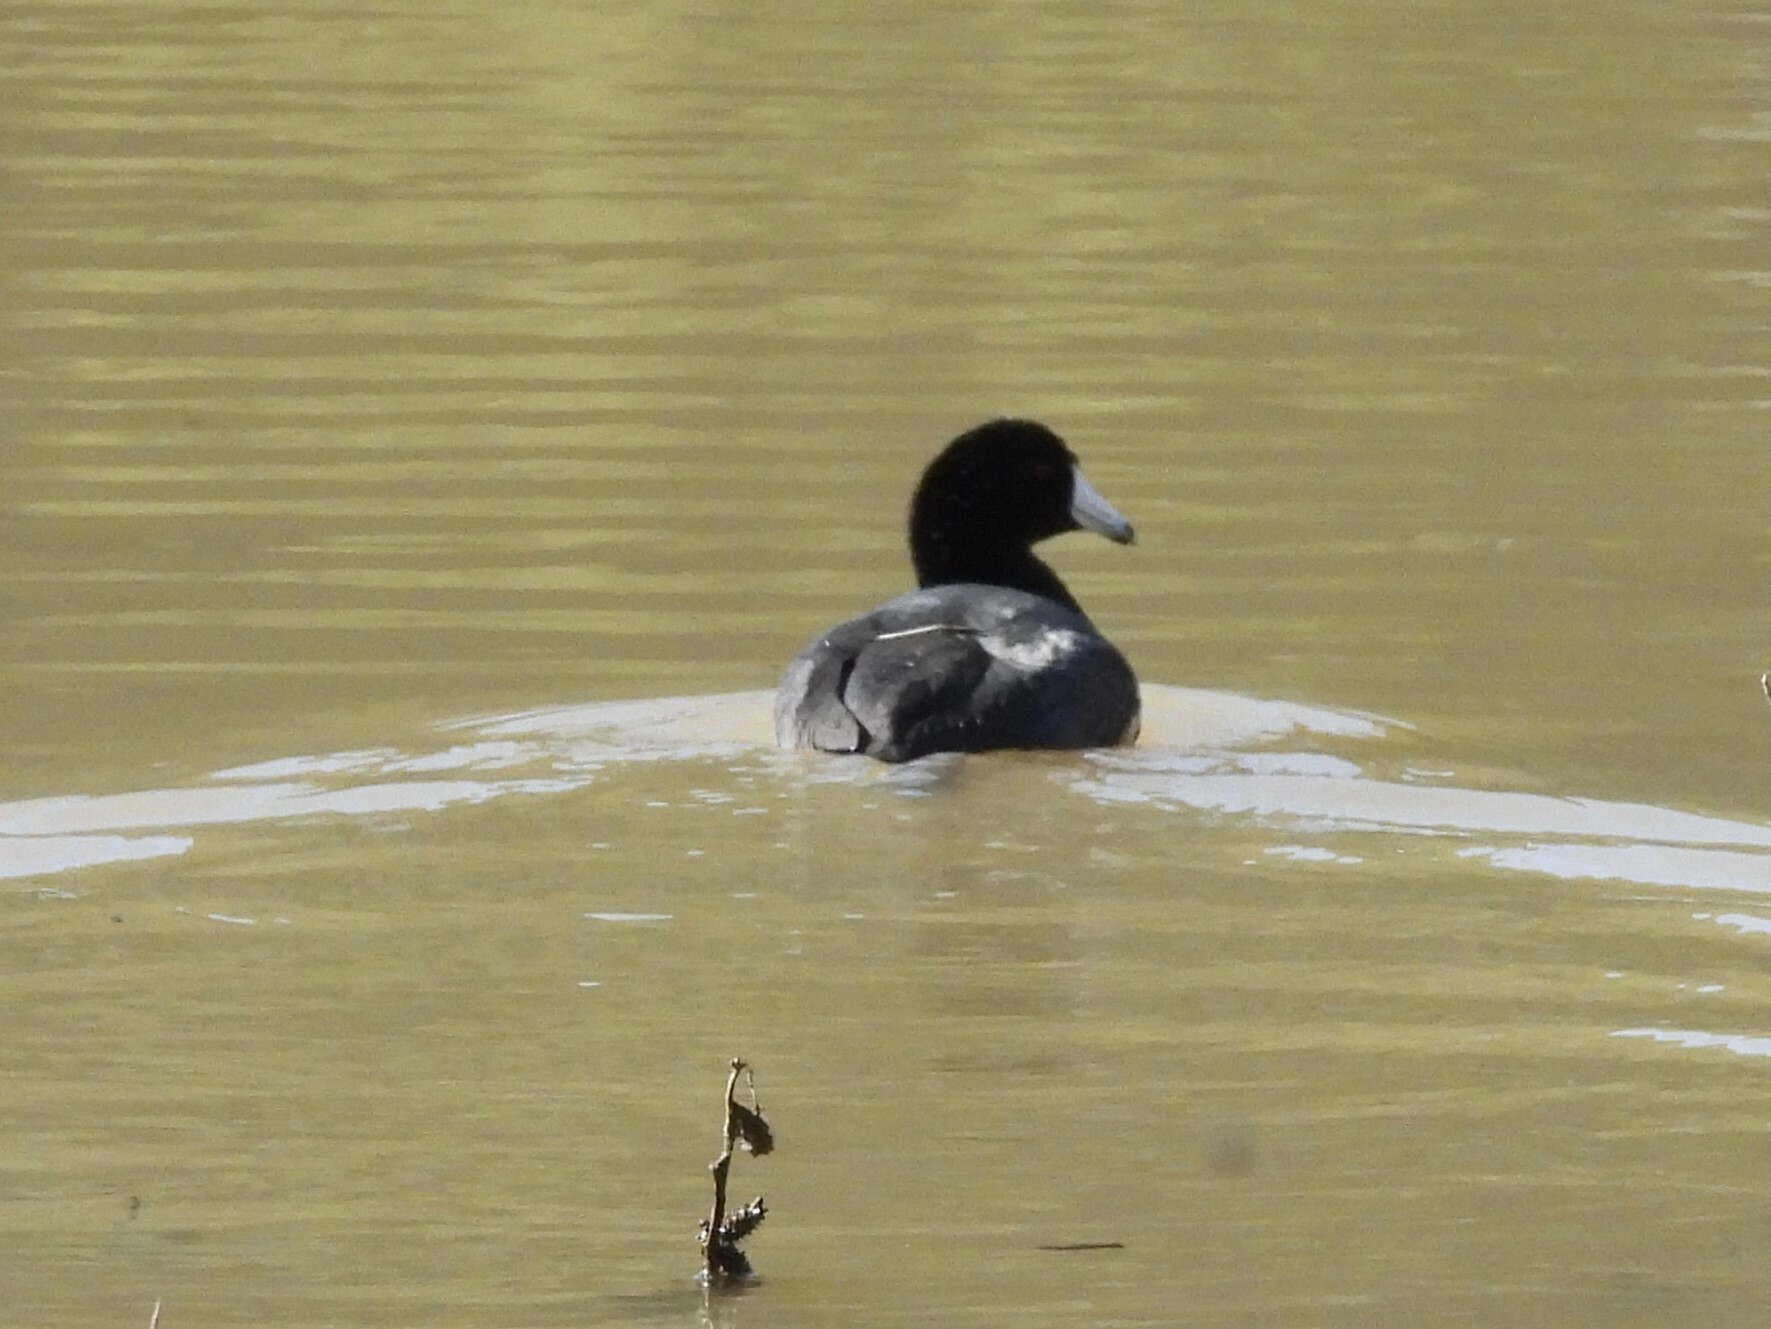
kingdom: Animalia
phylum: Chordata
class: Aves
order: Gruiformes
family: Rallidae
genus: Fulica
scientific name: Fulica americana
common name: American coot
